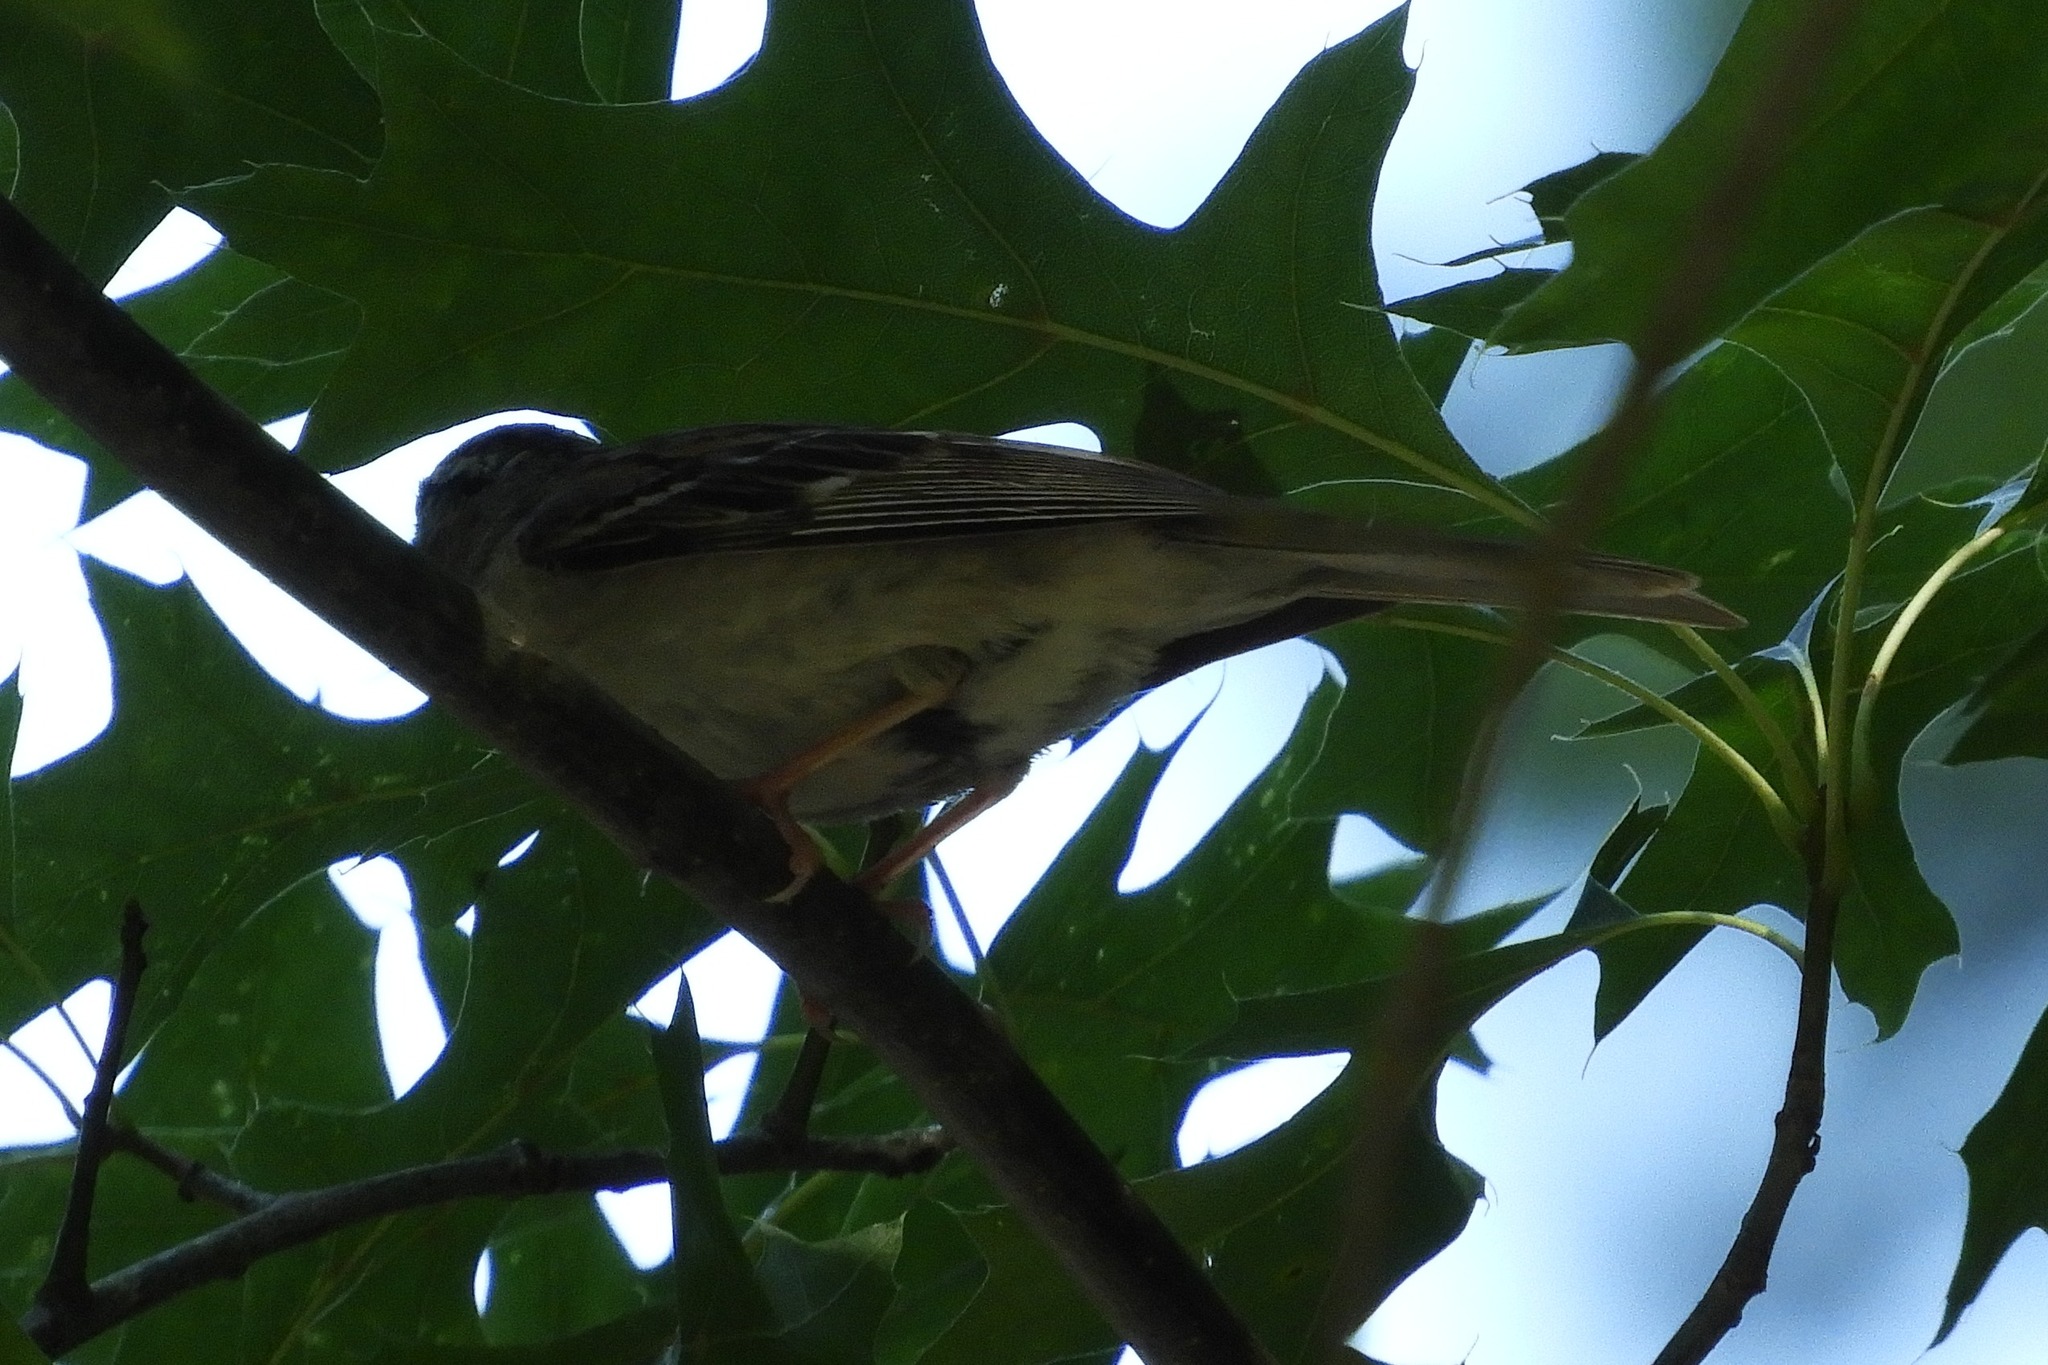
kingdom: Animalia
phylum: Chordata
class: Aves
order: Passeriformes
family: Passerellidae
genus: Spizella
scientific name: Spizella passerina
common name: Chipping sparrow
